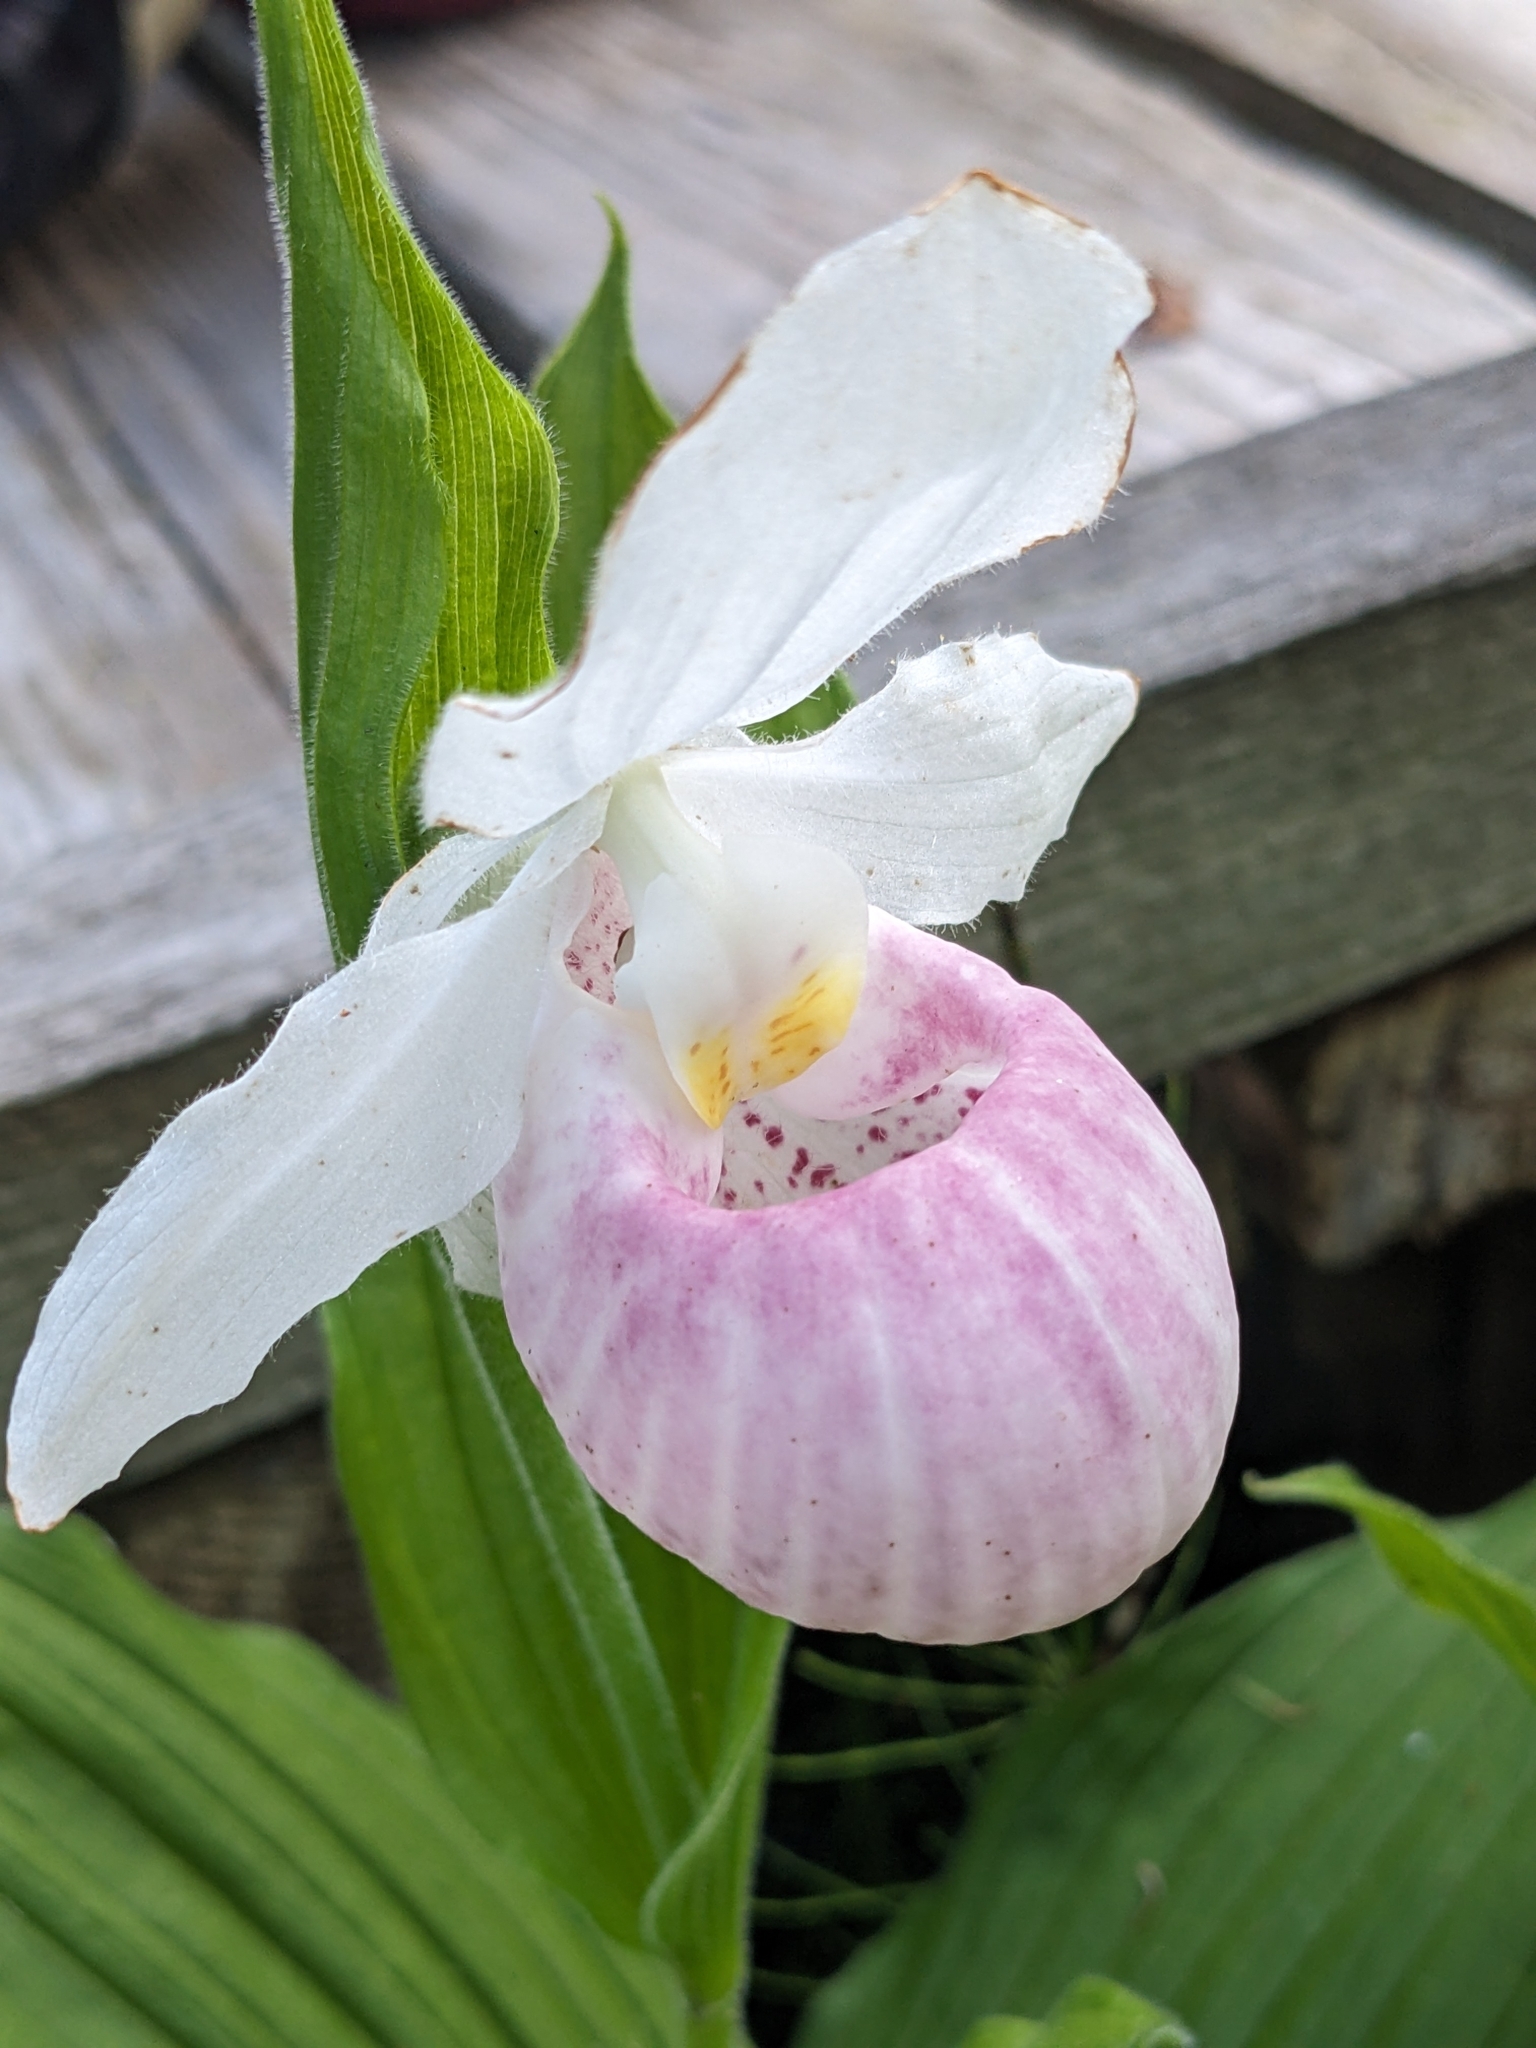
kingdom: Plantae
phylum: Tracheophyta
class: Liliopsida
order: Asparagales
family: Orchidaceae
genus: Cypripedium
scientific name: Cypripedium reginae
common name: Queen lady's-slipper
